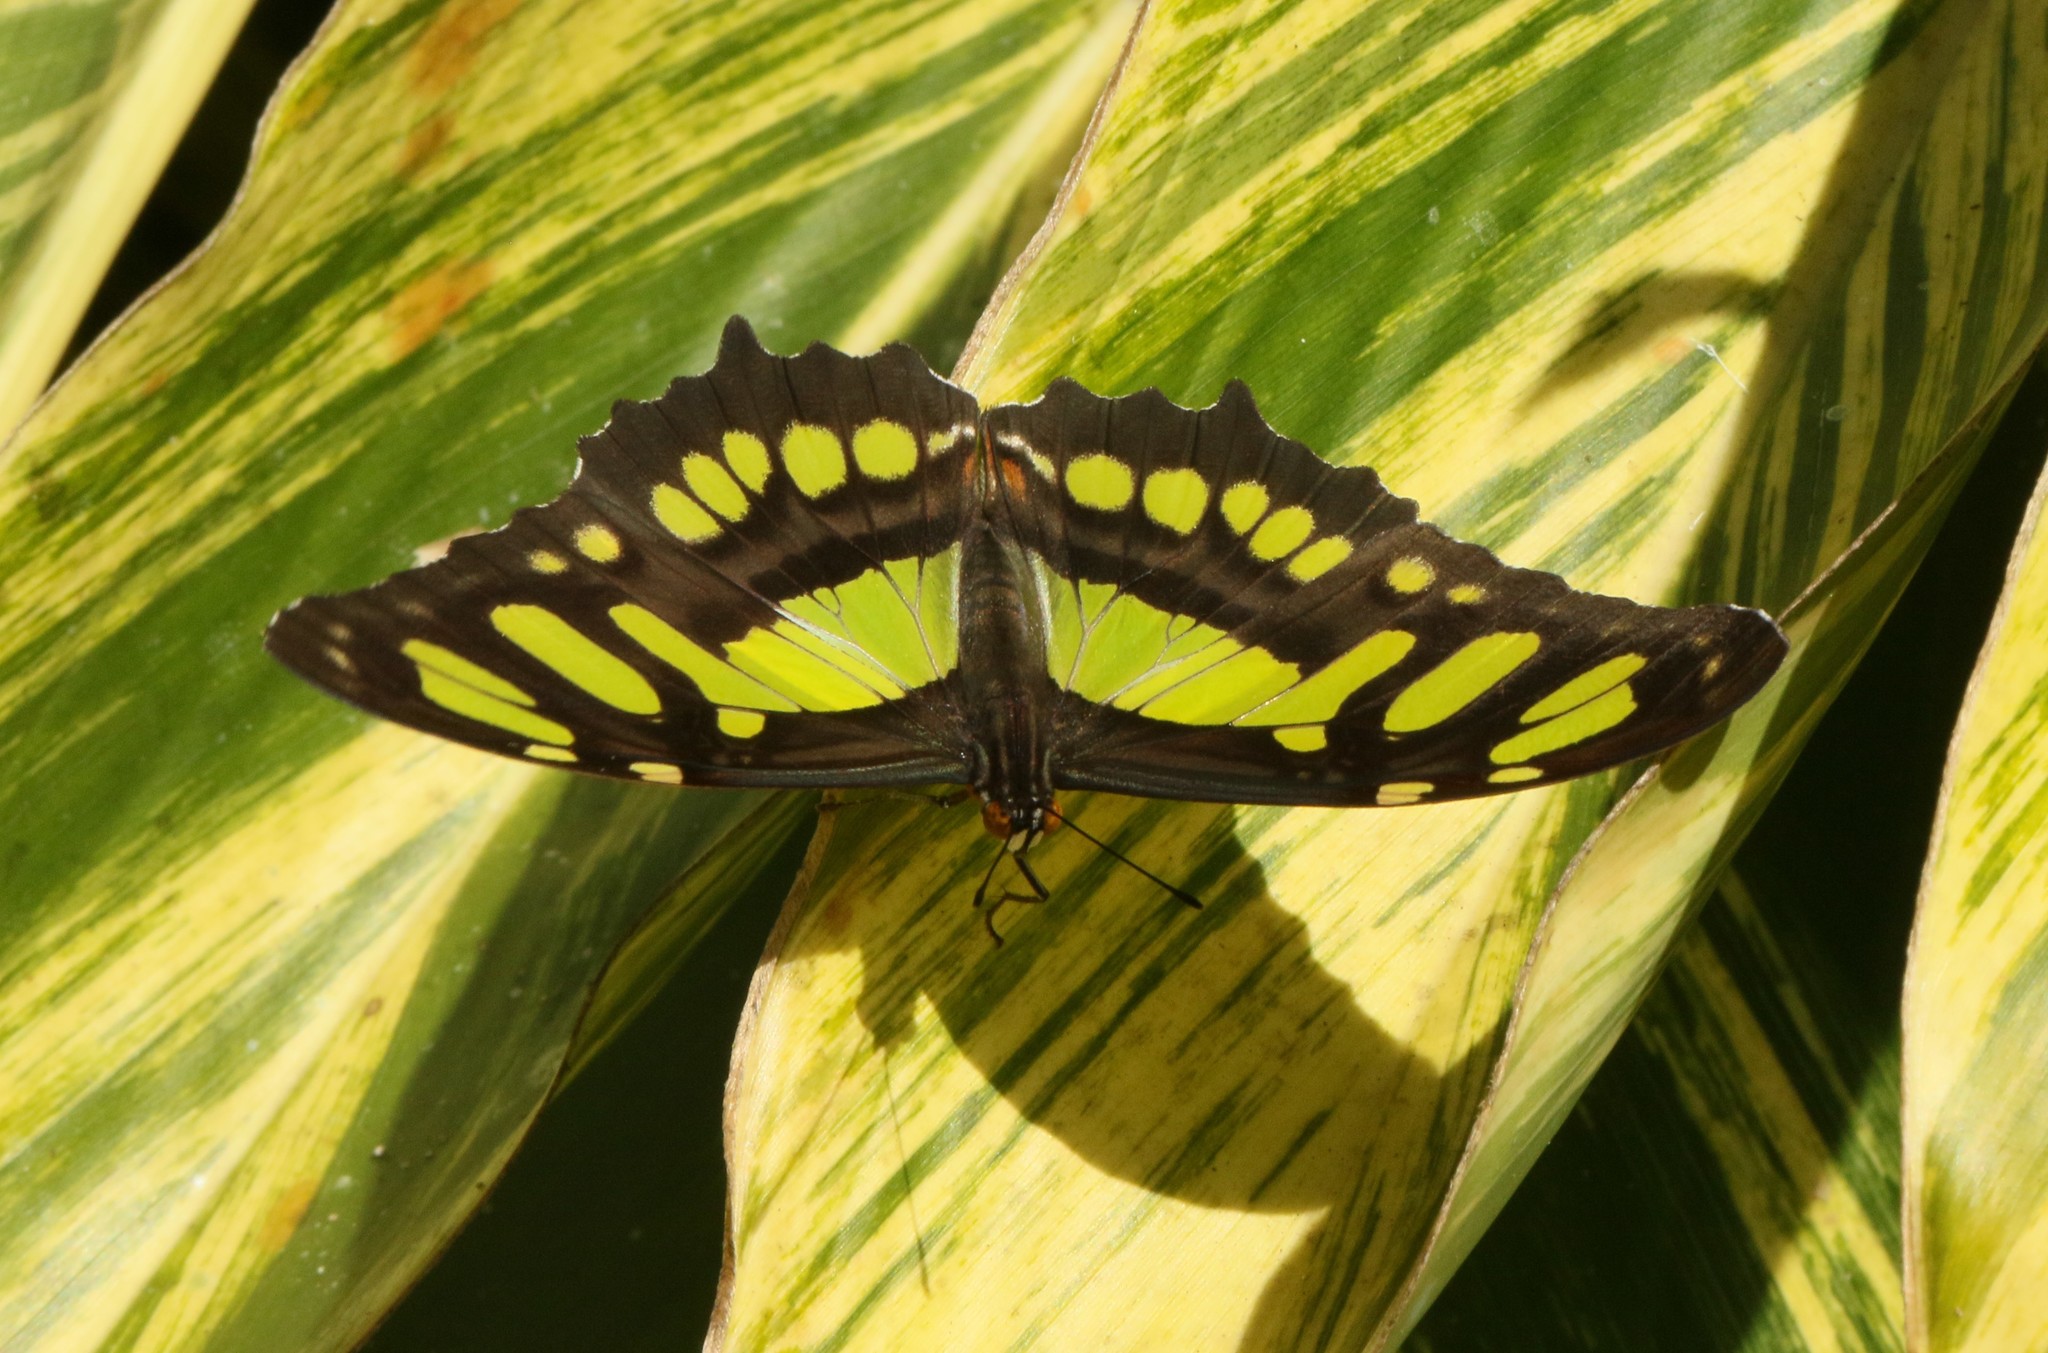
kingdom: Animalia
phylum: Arthropoda
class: Insecta
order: Lepidoptera
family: Nymphalidae
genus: Siproeta
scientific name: Siproeta stelenes
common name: Malachite
